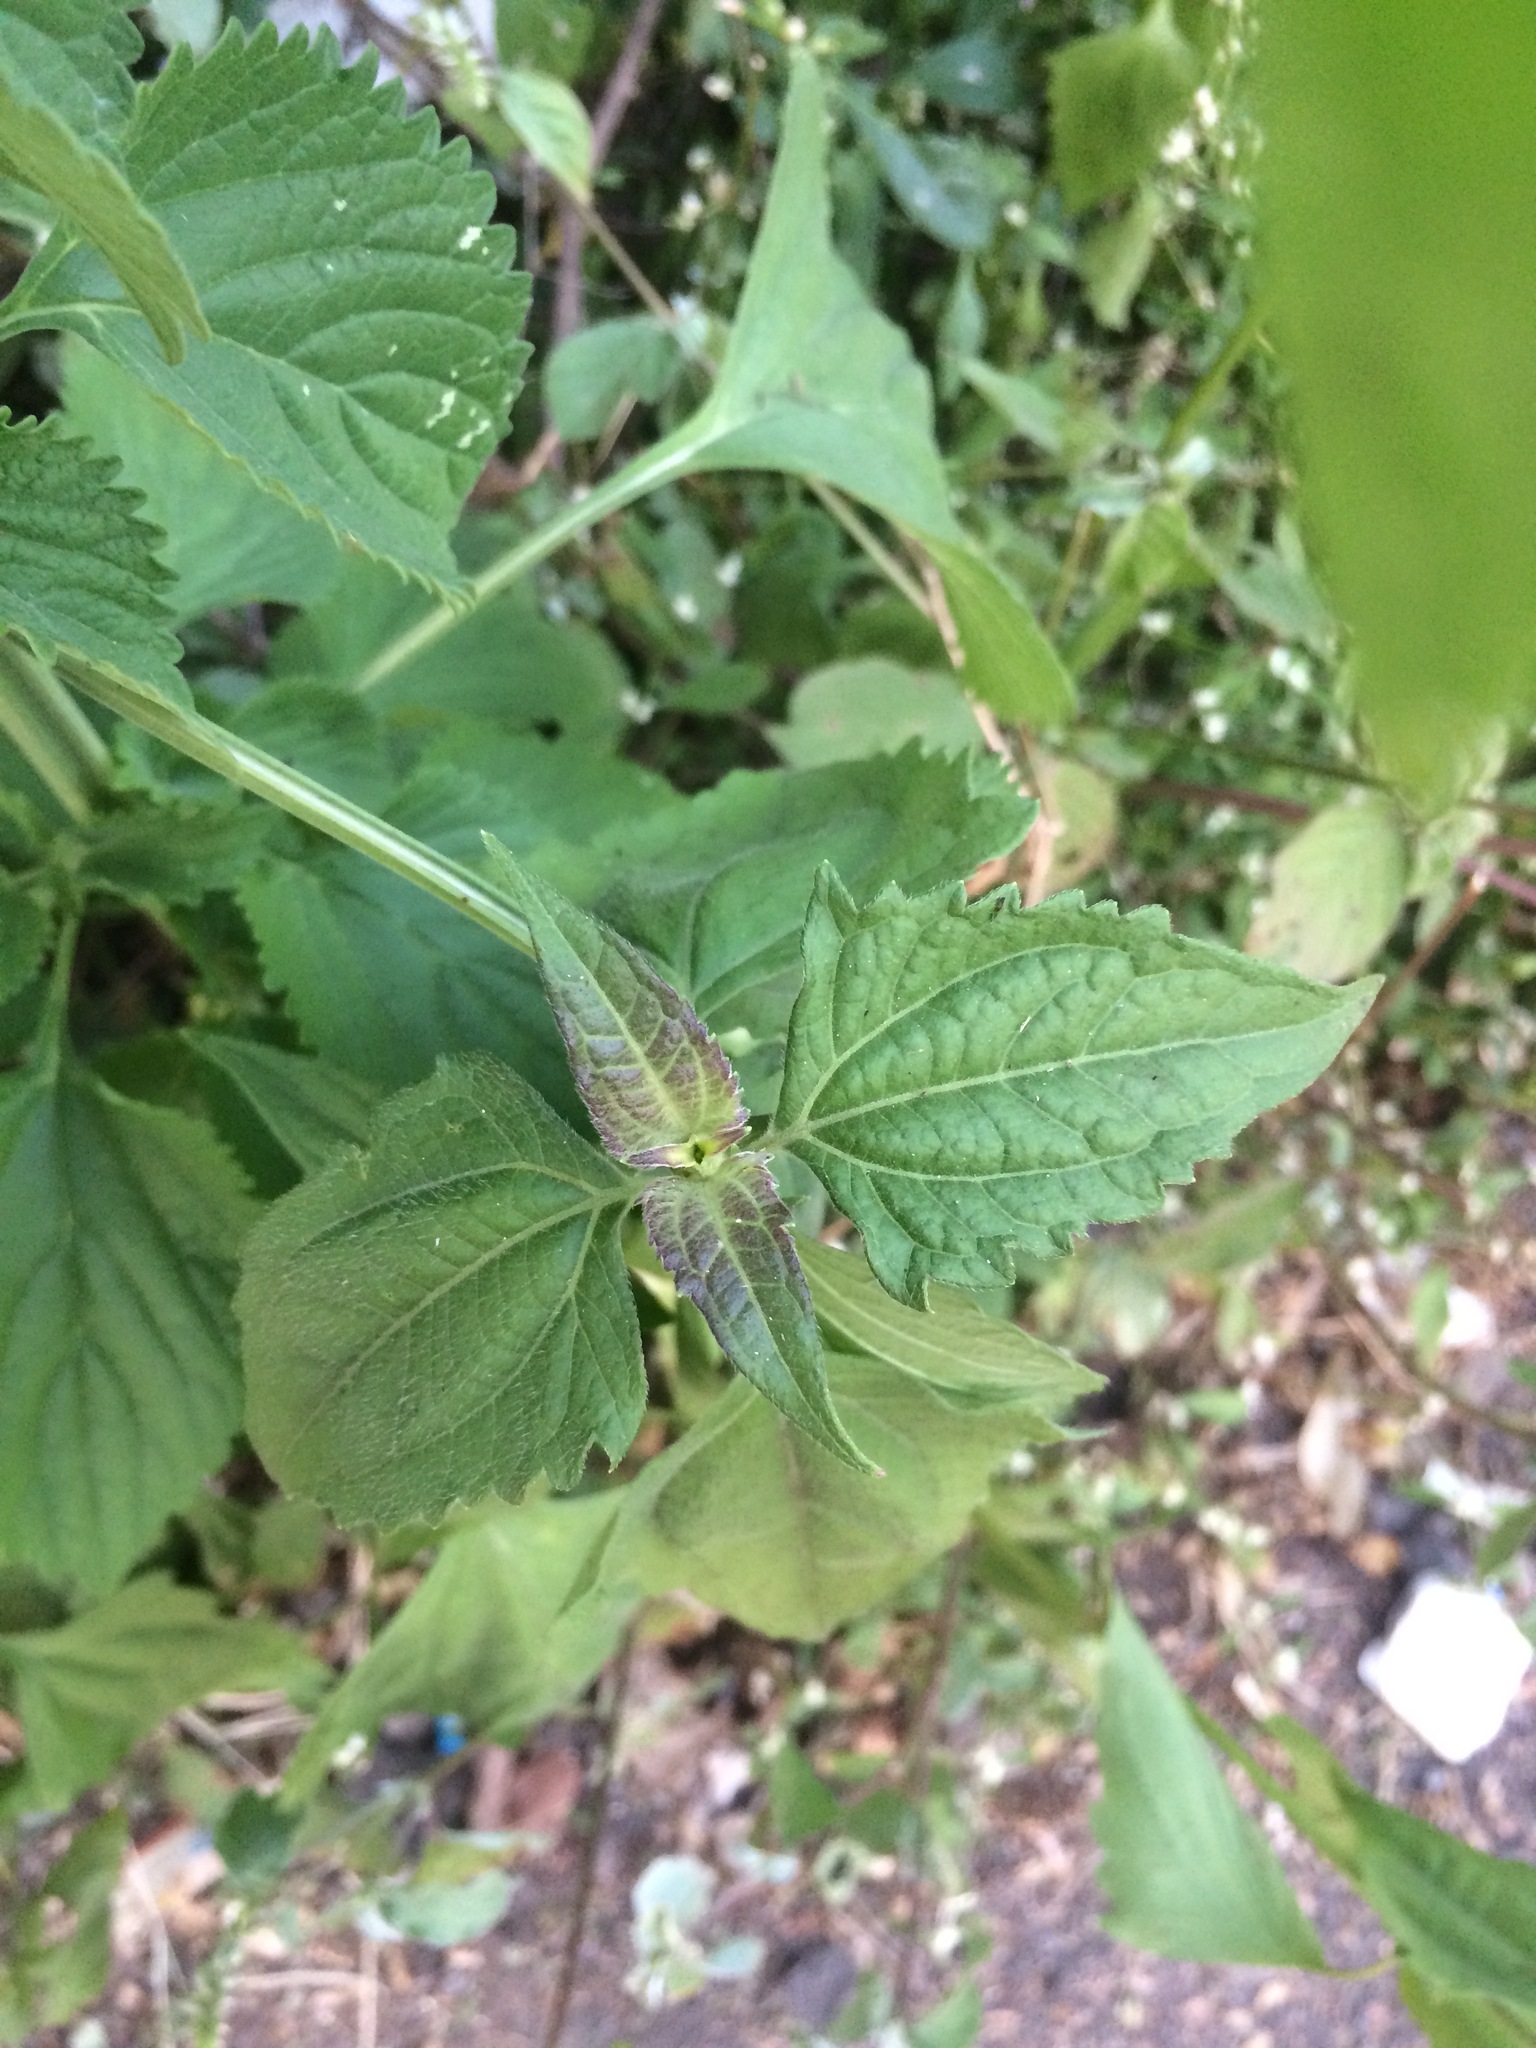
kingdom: Plantae
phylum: Tracheophyta
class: Magnoliopsida
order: Lamiales
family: Lamiaceae
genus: Leonotis
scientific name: Leonotis nepetifolia
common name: Christmas candlestick
